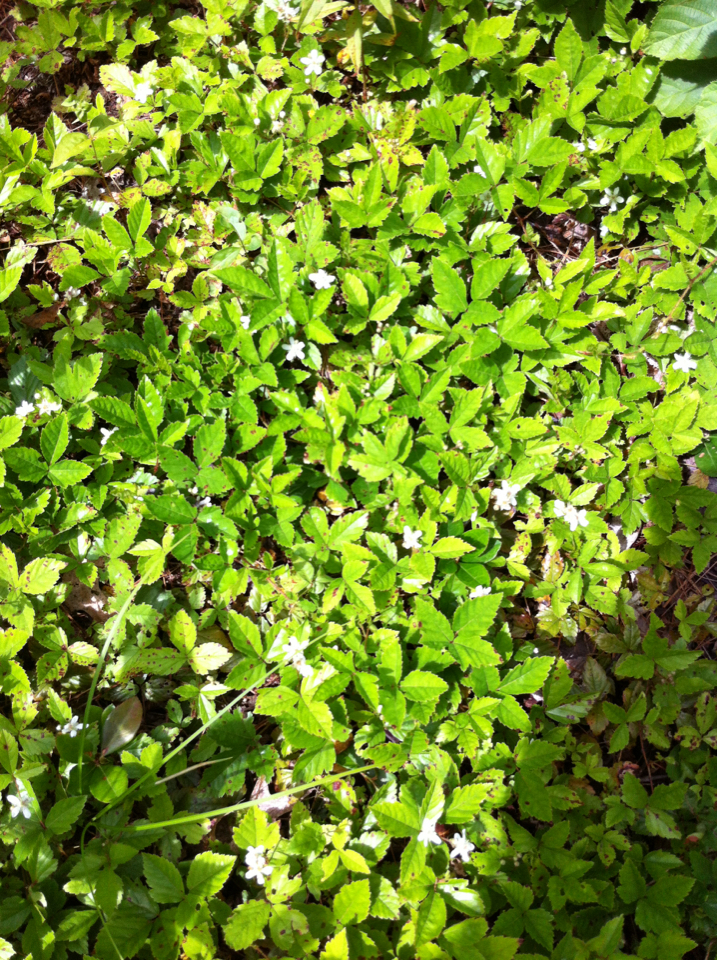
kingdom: Plantae
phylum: Tracheophyta
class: Magnoliopsida
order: Rosales
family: Rosaceae
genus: Rubus
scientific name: Rubus hispidus
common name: Running blackberry
